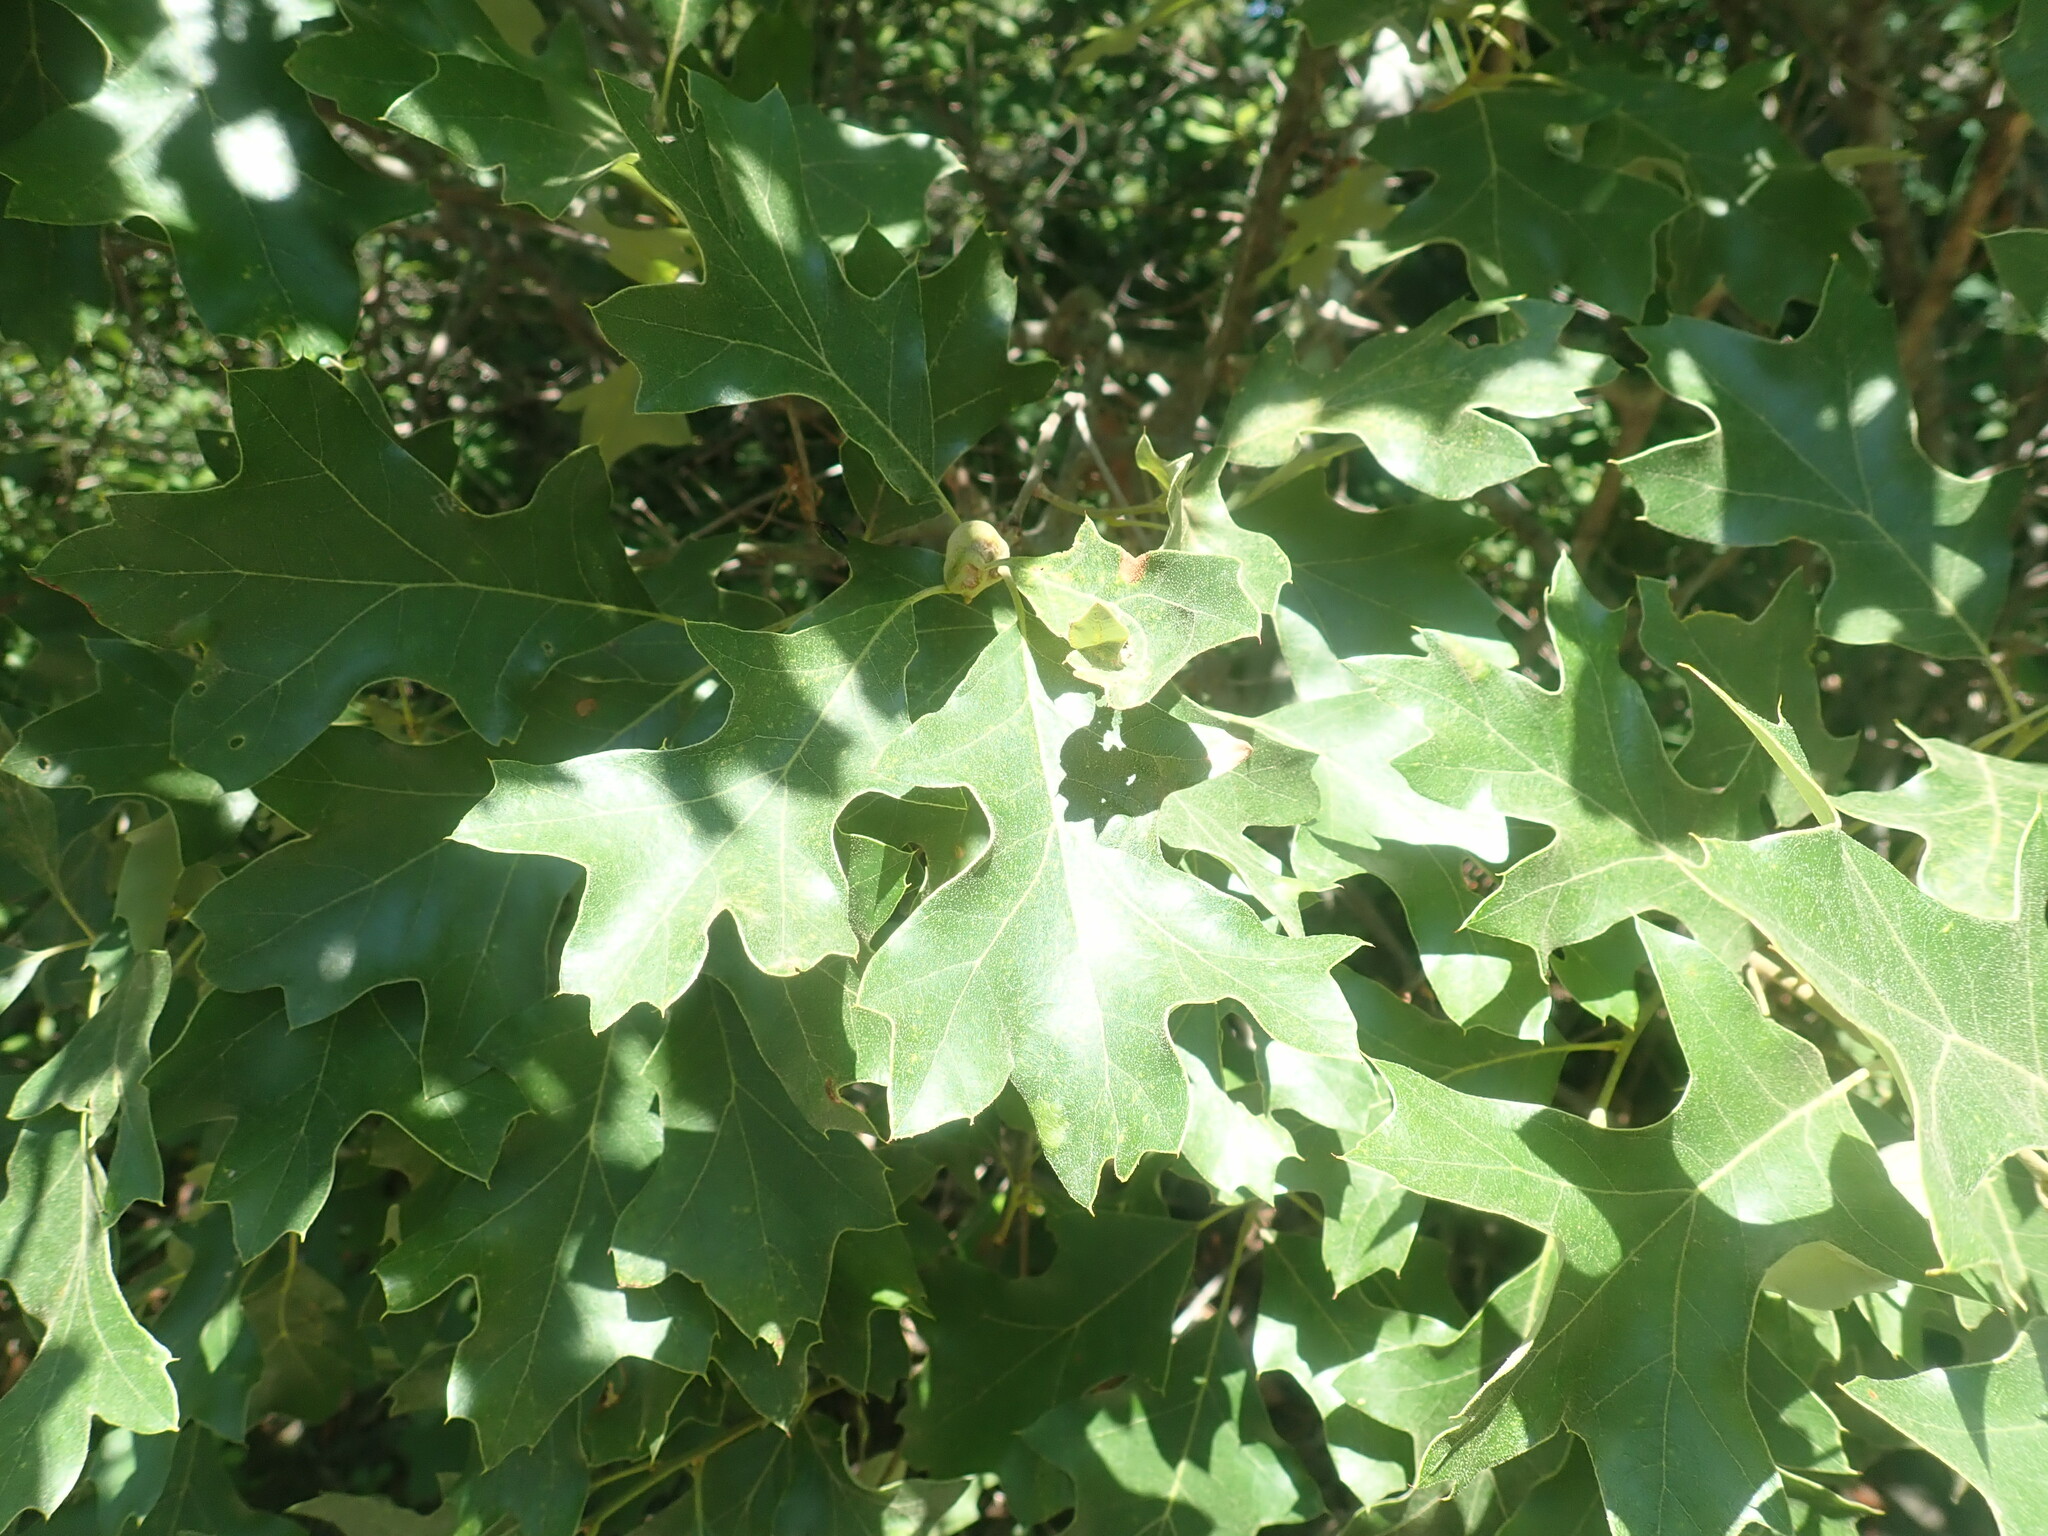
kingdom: Plantae
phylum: Tracheophyta
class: Magnoliopsida
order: Fagales
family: Fagaceae
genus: Quercus
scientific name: Quercus velutina
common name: Black oak
